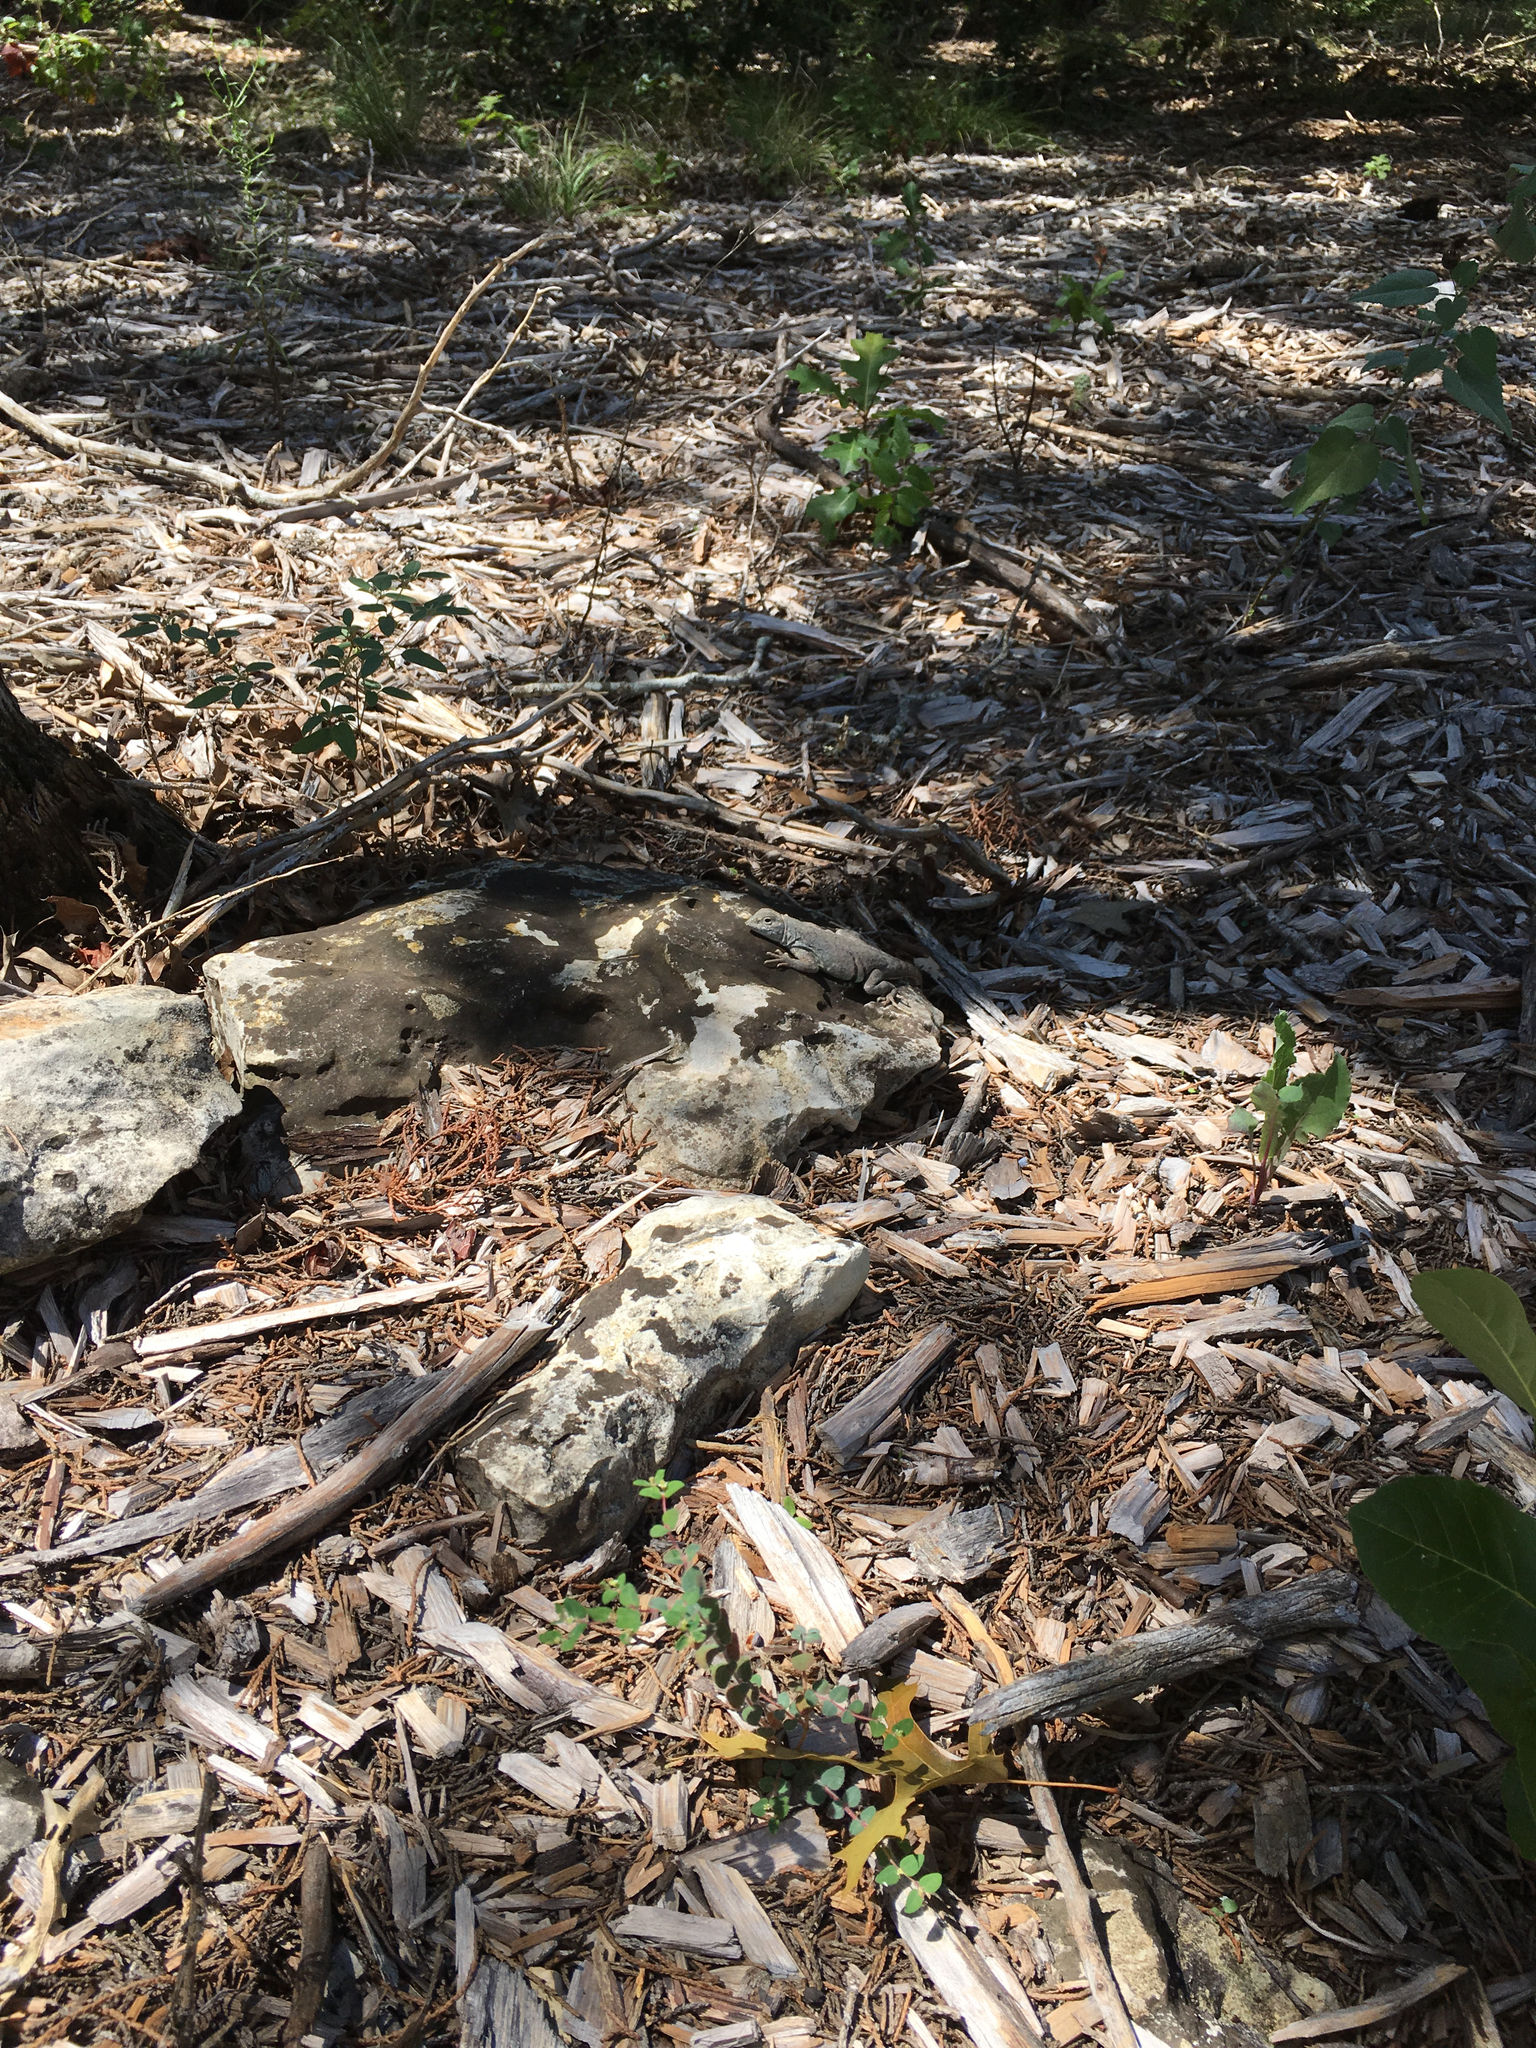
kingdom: Animalia
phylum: Chordata
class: Squamata
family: Phrynosomatidae
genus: Cophosaurus
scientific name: Cophosaurus texanus
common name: Greater earless lizard
